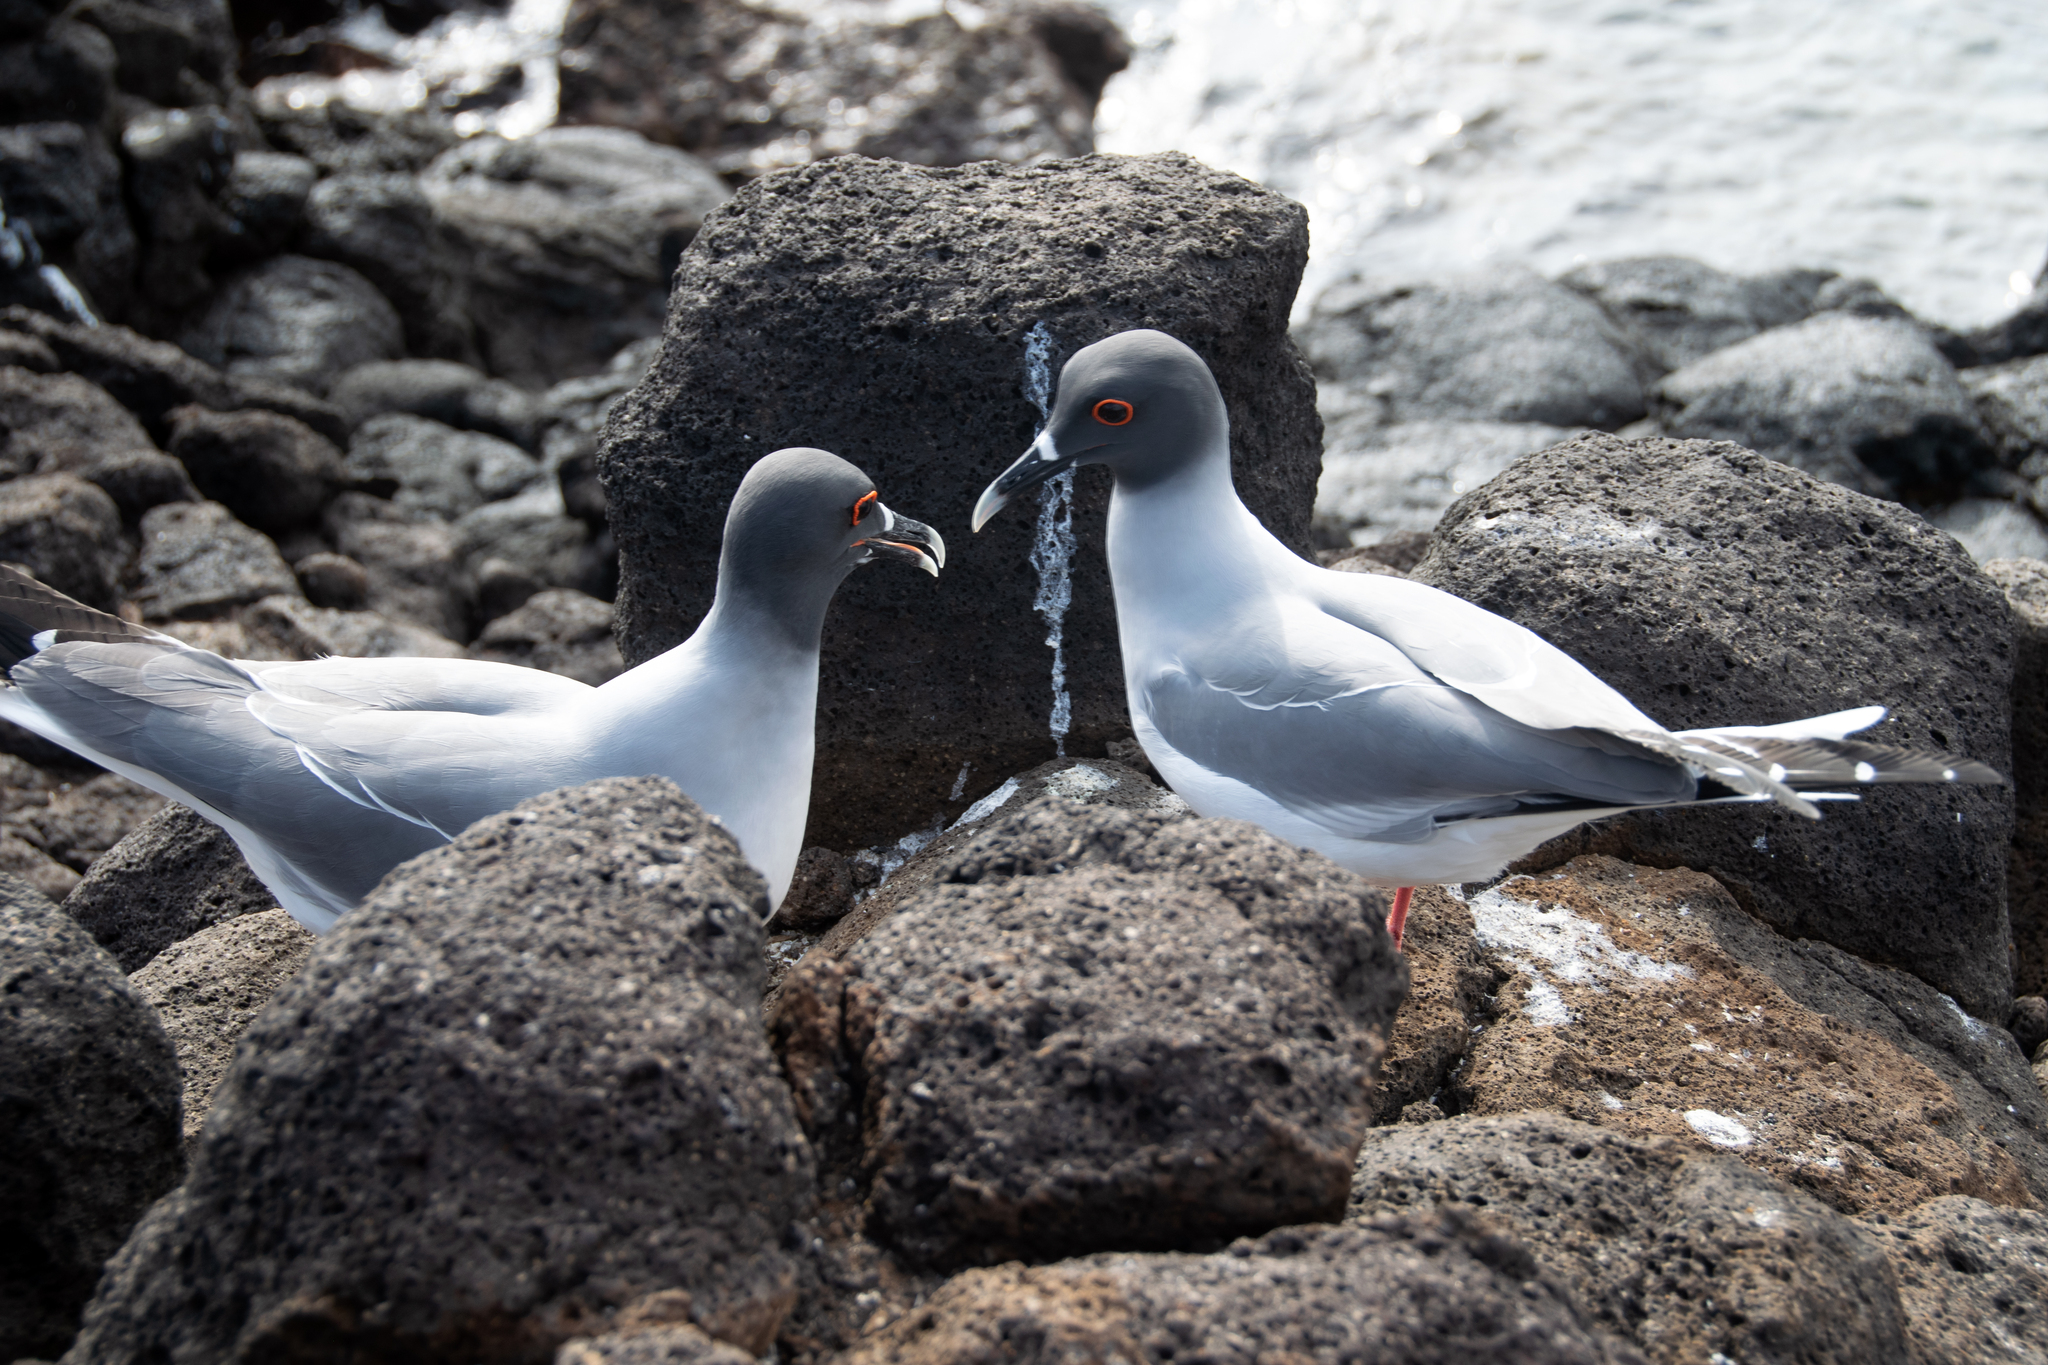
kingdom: Animalia
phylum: Chordata
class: Aves
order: Charadriiformes
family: Laridae
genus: Creagrus
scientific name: Creagrus furcatus
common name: Swallow-tailed gull
